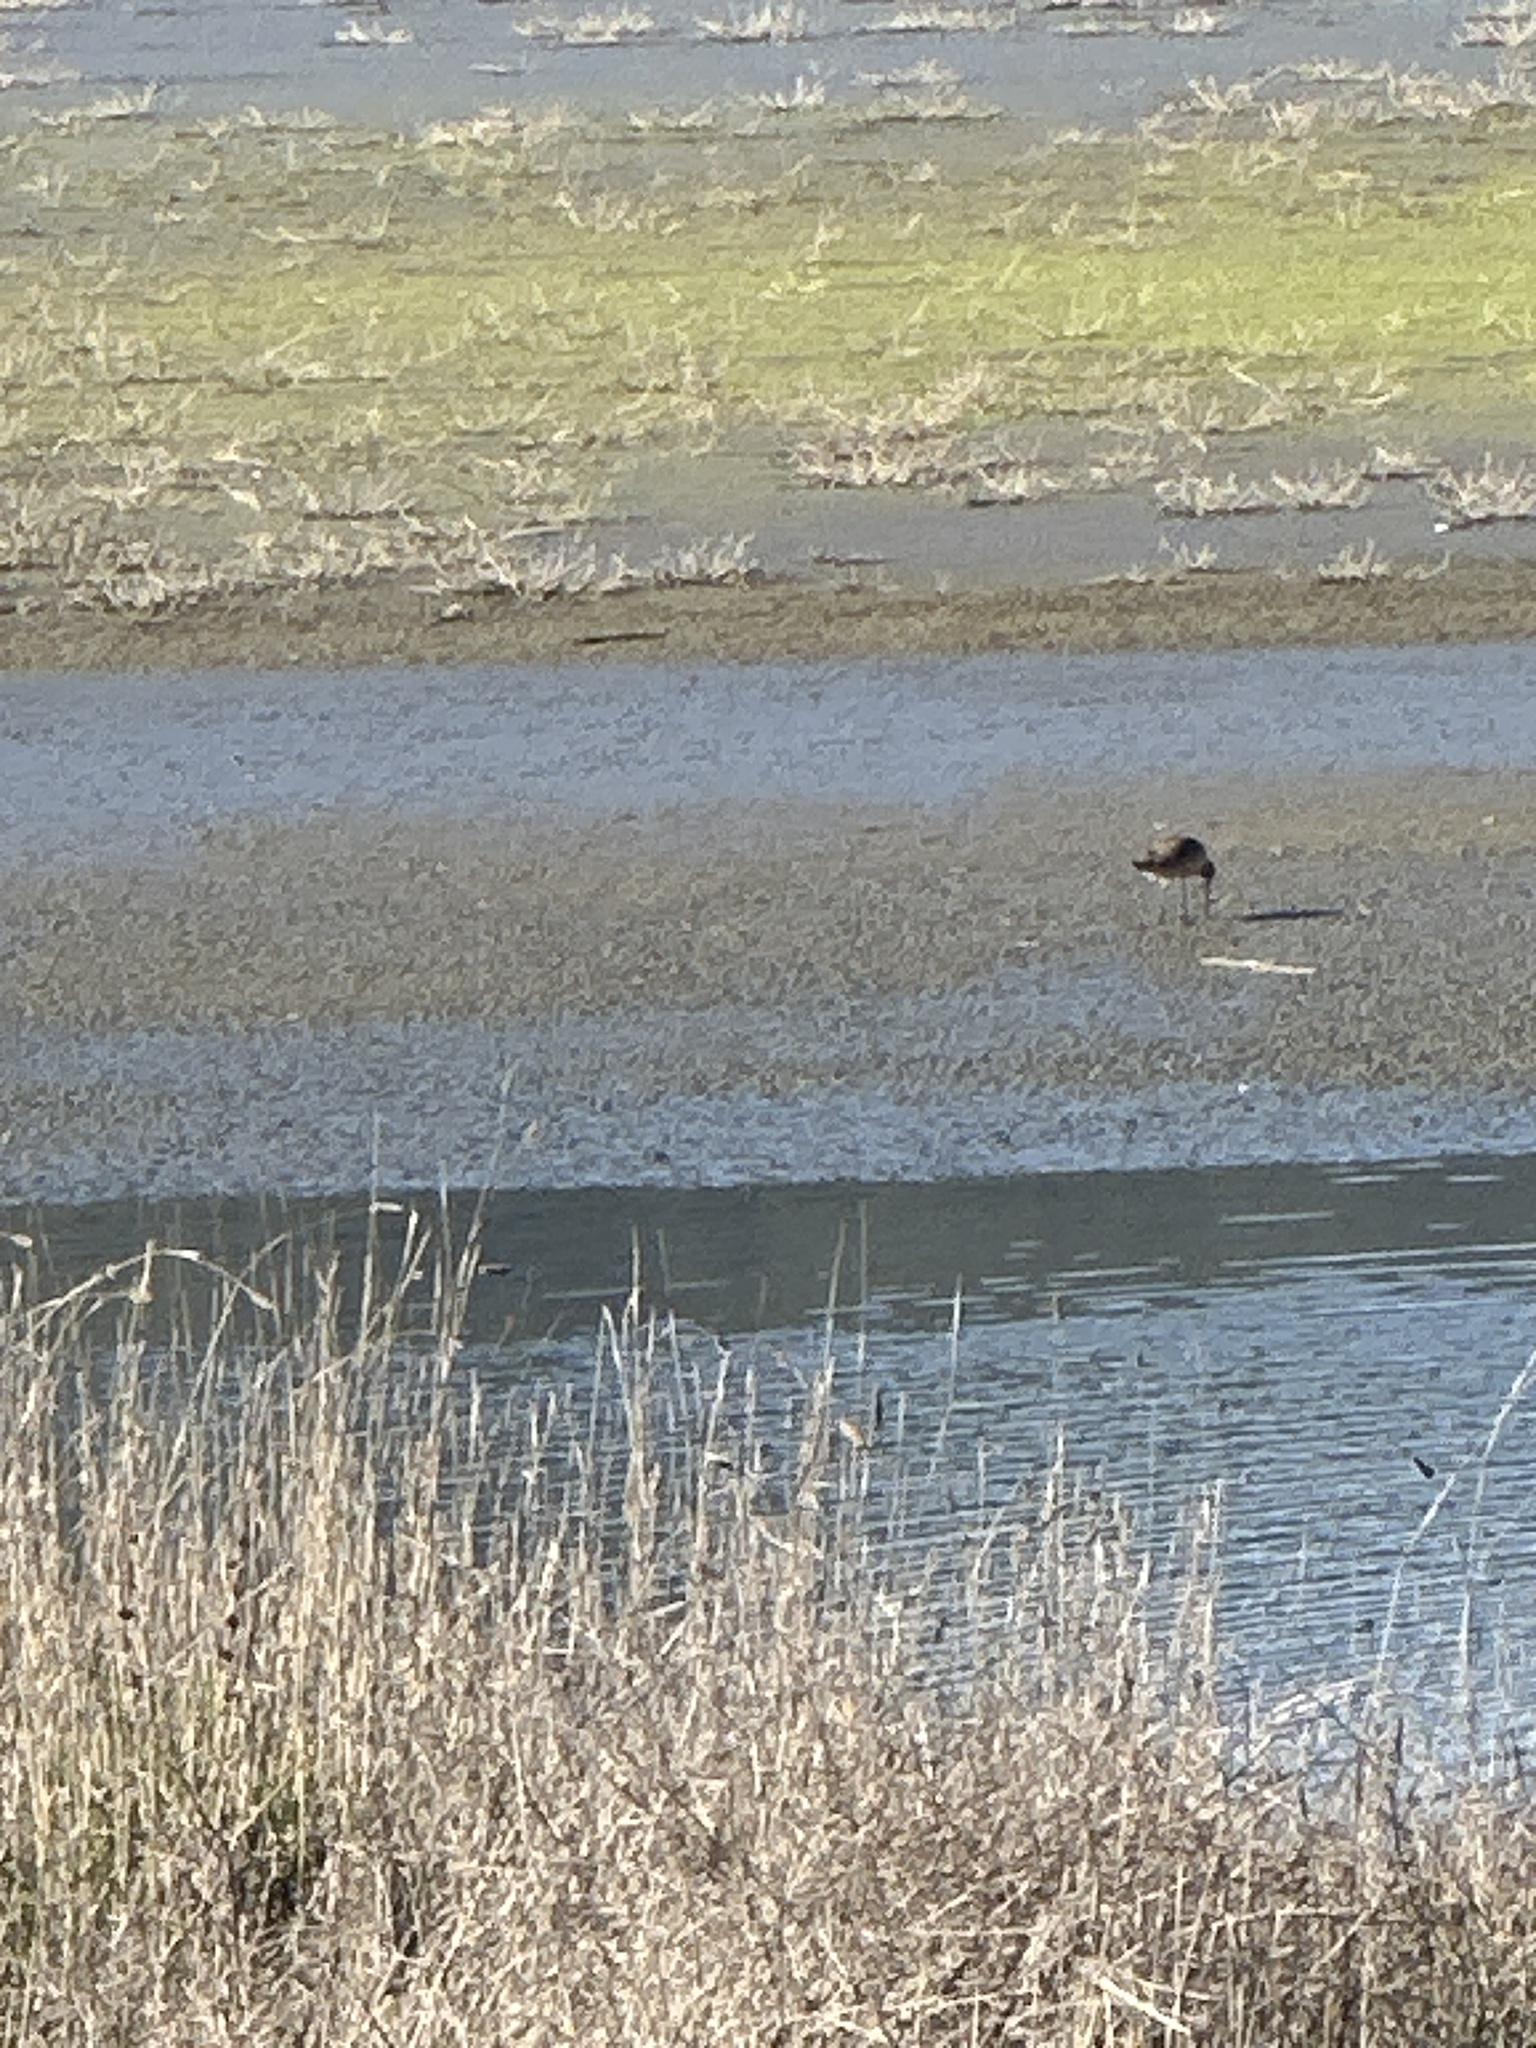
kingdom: Animalia
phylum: Chordata
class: Aves
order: Charadriiformes
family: Scolopacidae
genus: Limosa
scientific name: Limosa fedoa
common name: Marbled godwit
